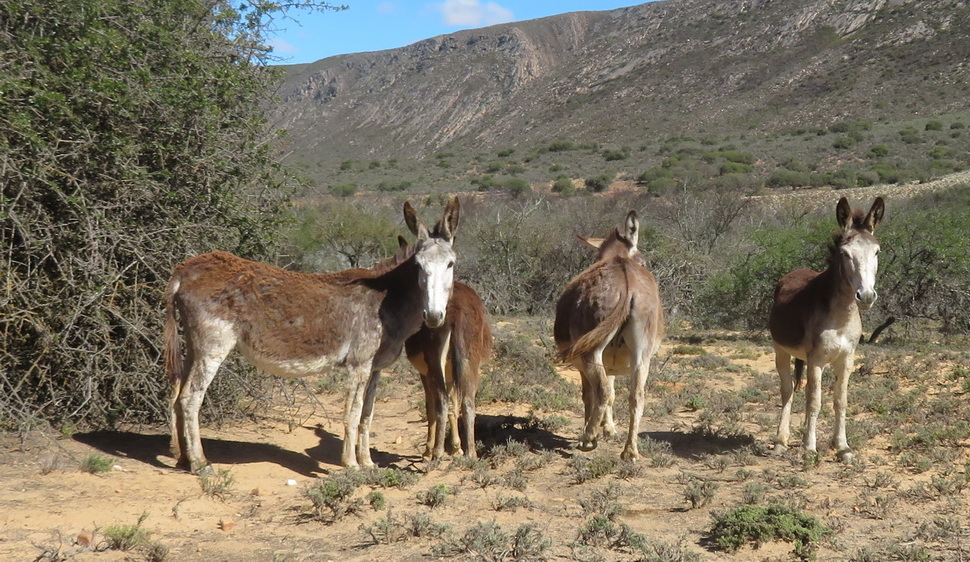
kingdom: Animalia
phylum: Chordata
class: Mammalia
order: Perissodactyla
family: Equidae
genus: Equus
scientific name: Equus asinus
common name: Ass
